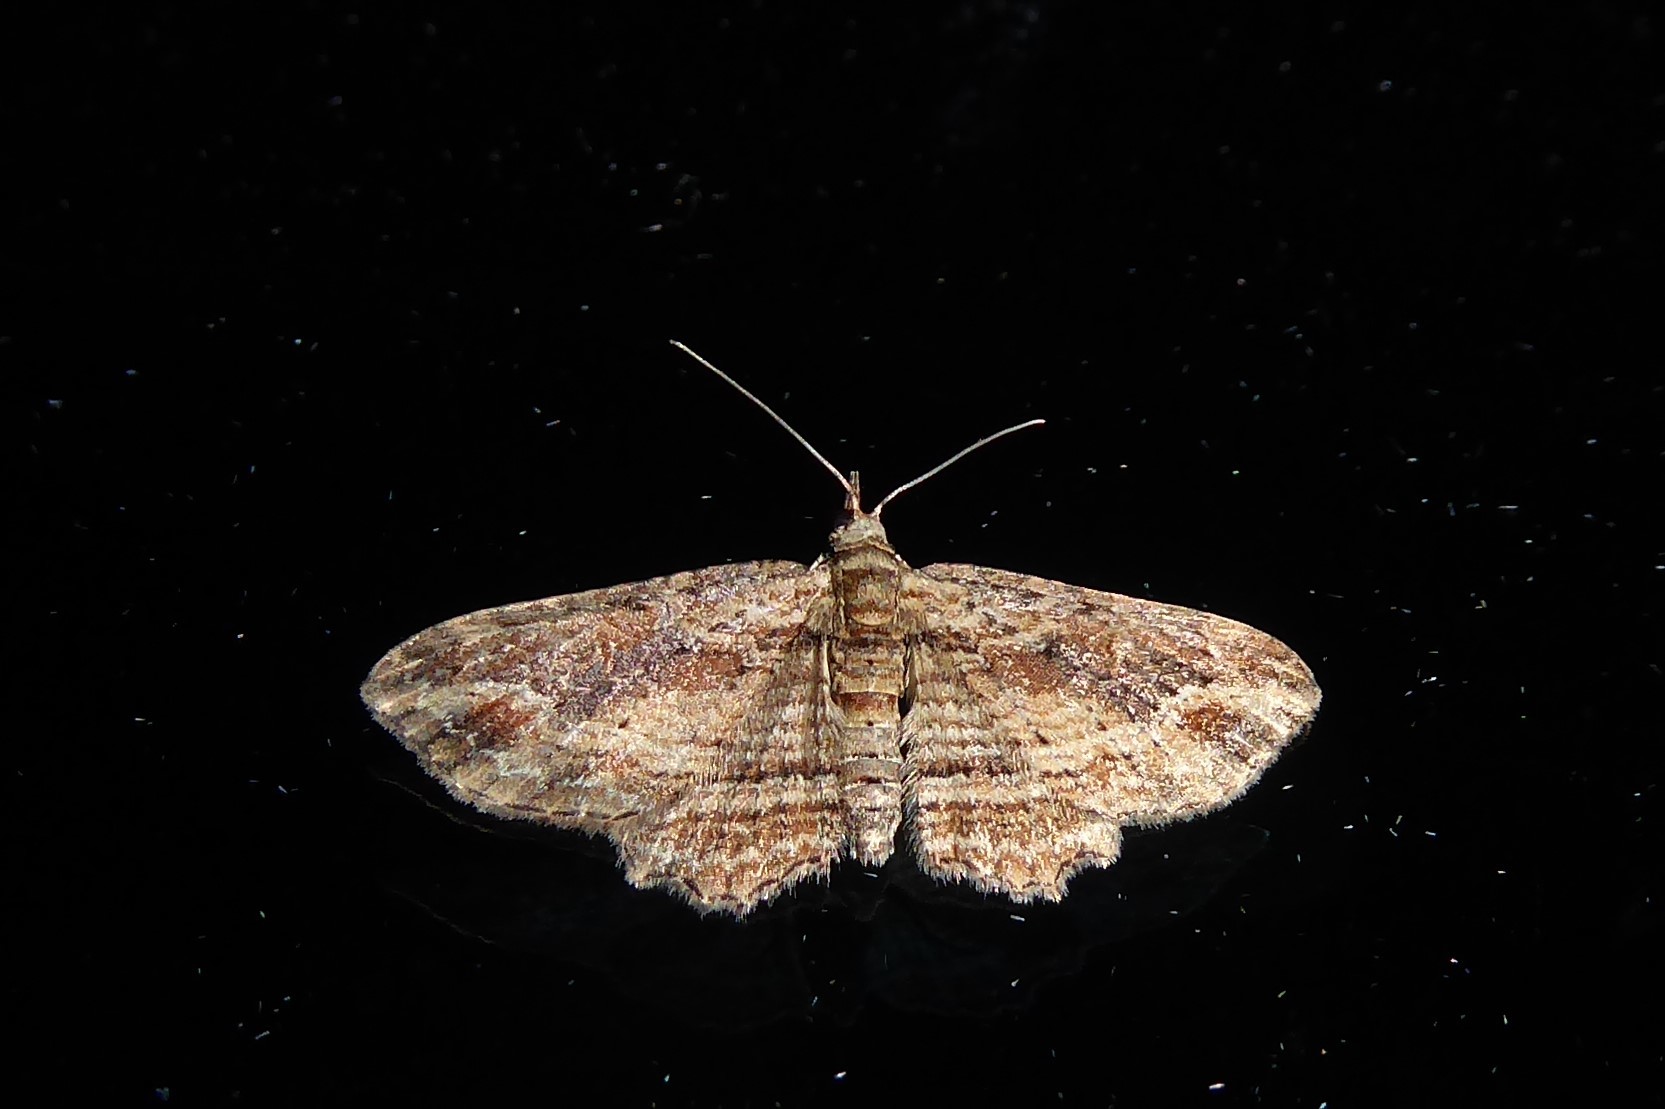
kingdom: Animalia
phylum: Arthropoda
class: Insecta
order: Lepidoptera
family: Geometridae
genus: Chloroclystis
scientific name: Chloroclystis filata
